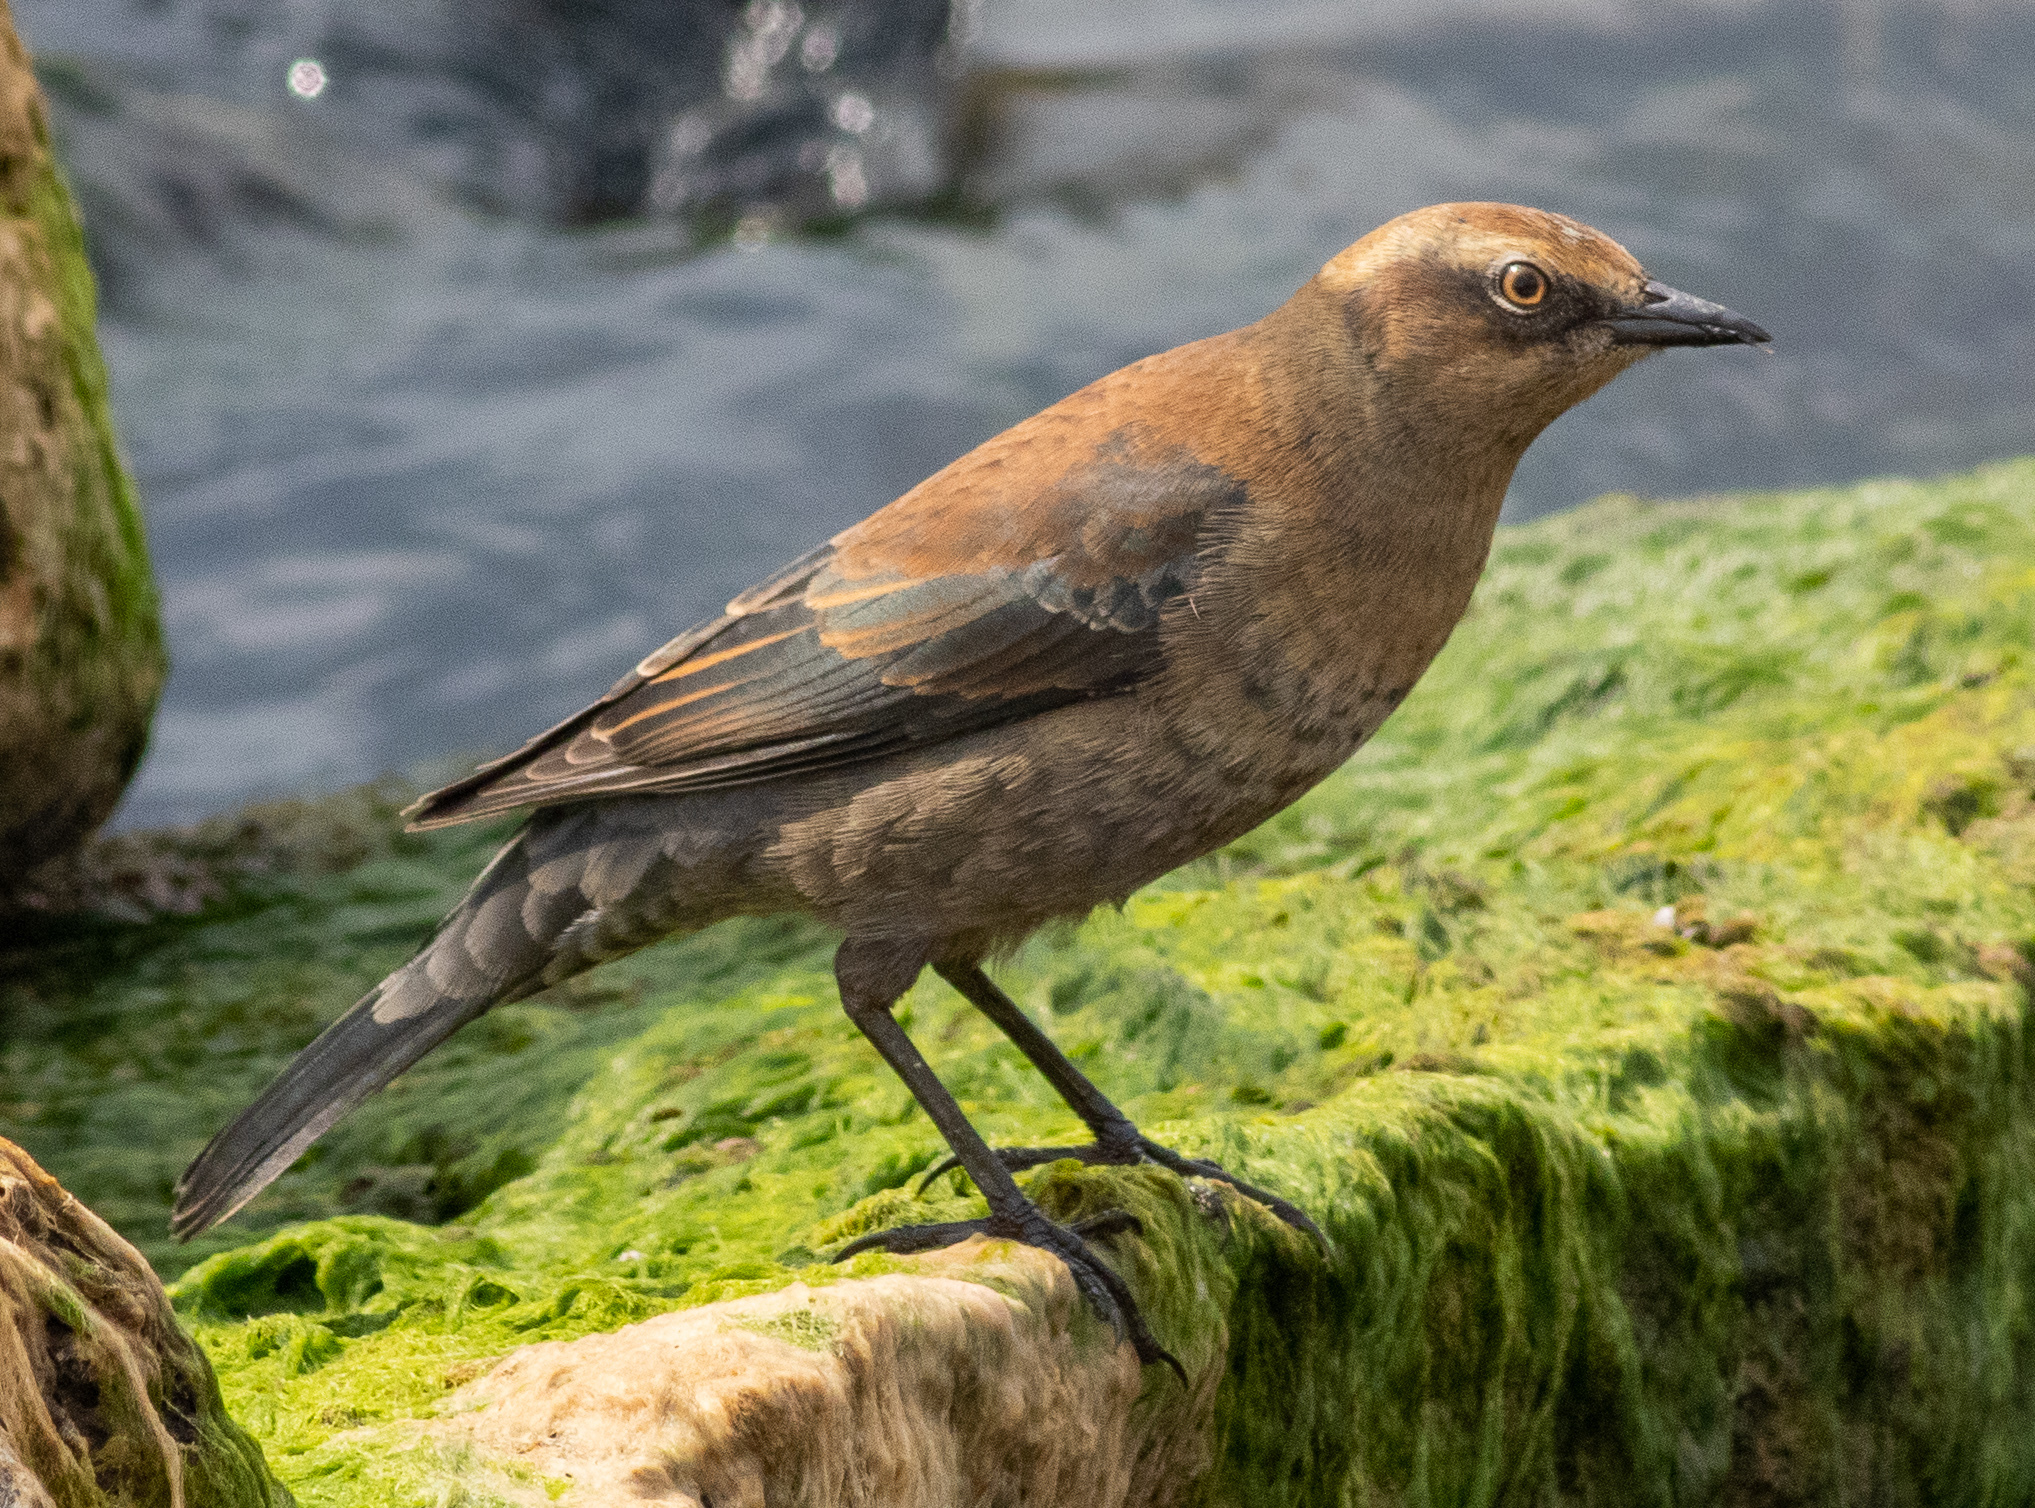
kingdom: Animalia
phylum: Chordata
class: Aves
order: Passeriformes
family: Icteridae
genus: Euphagus
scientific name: Euphagus carolinus
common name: Rusty blackbird
